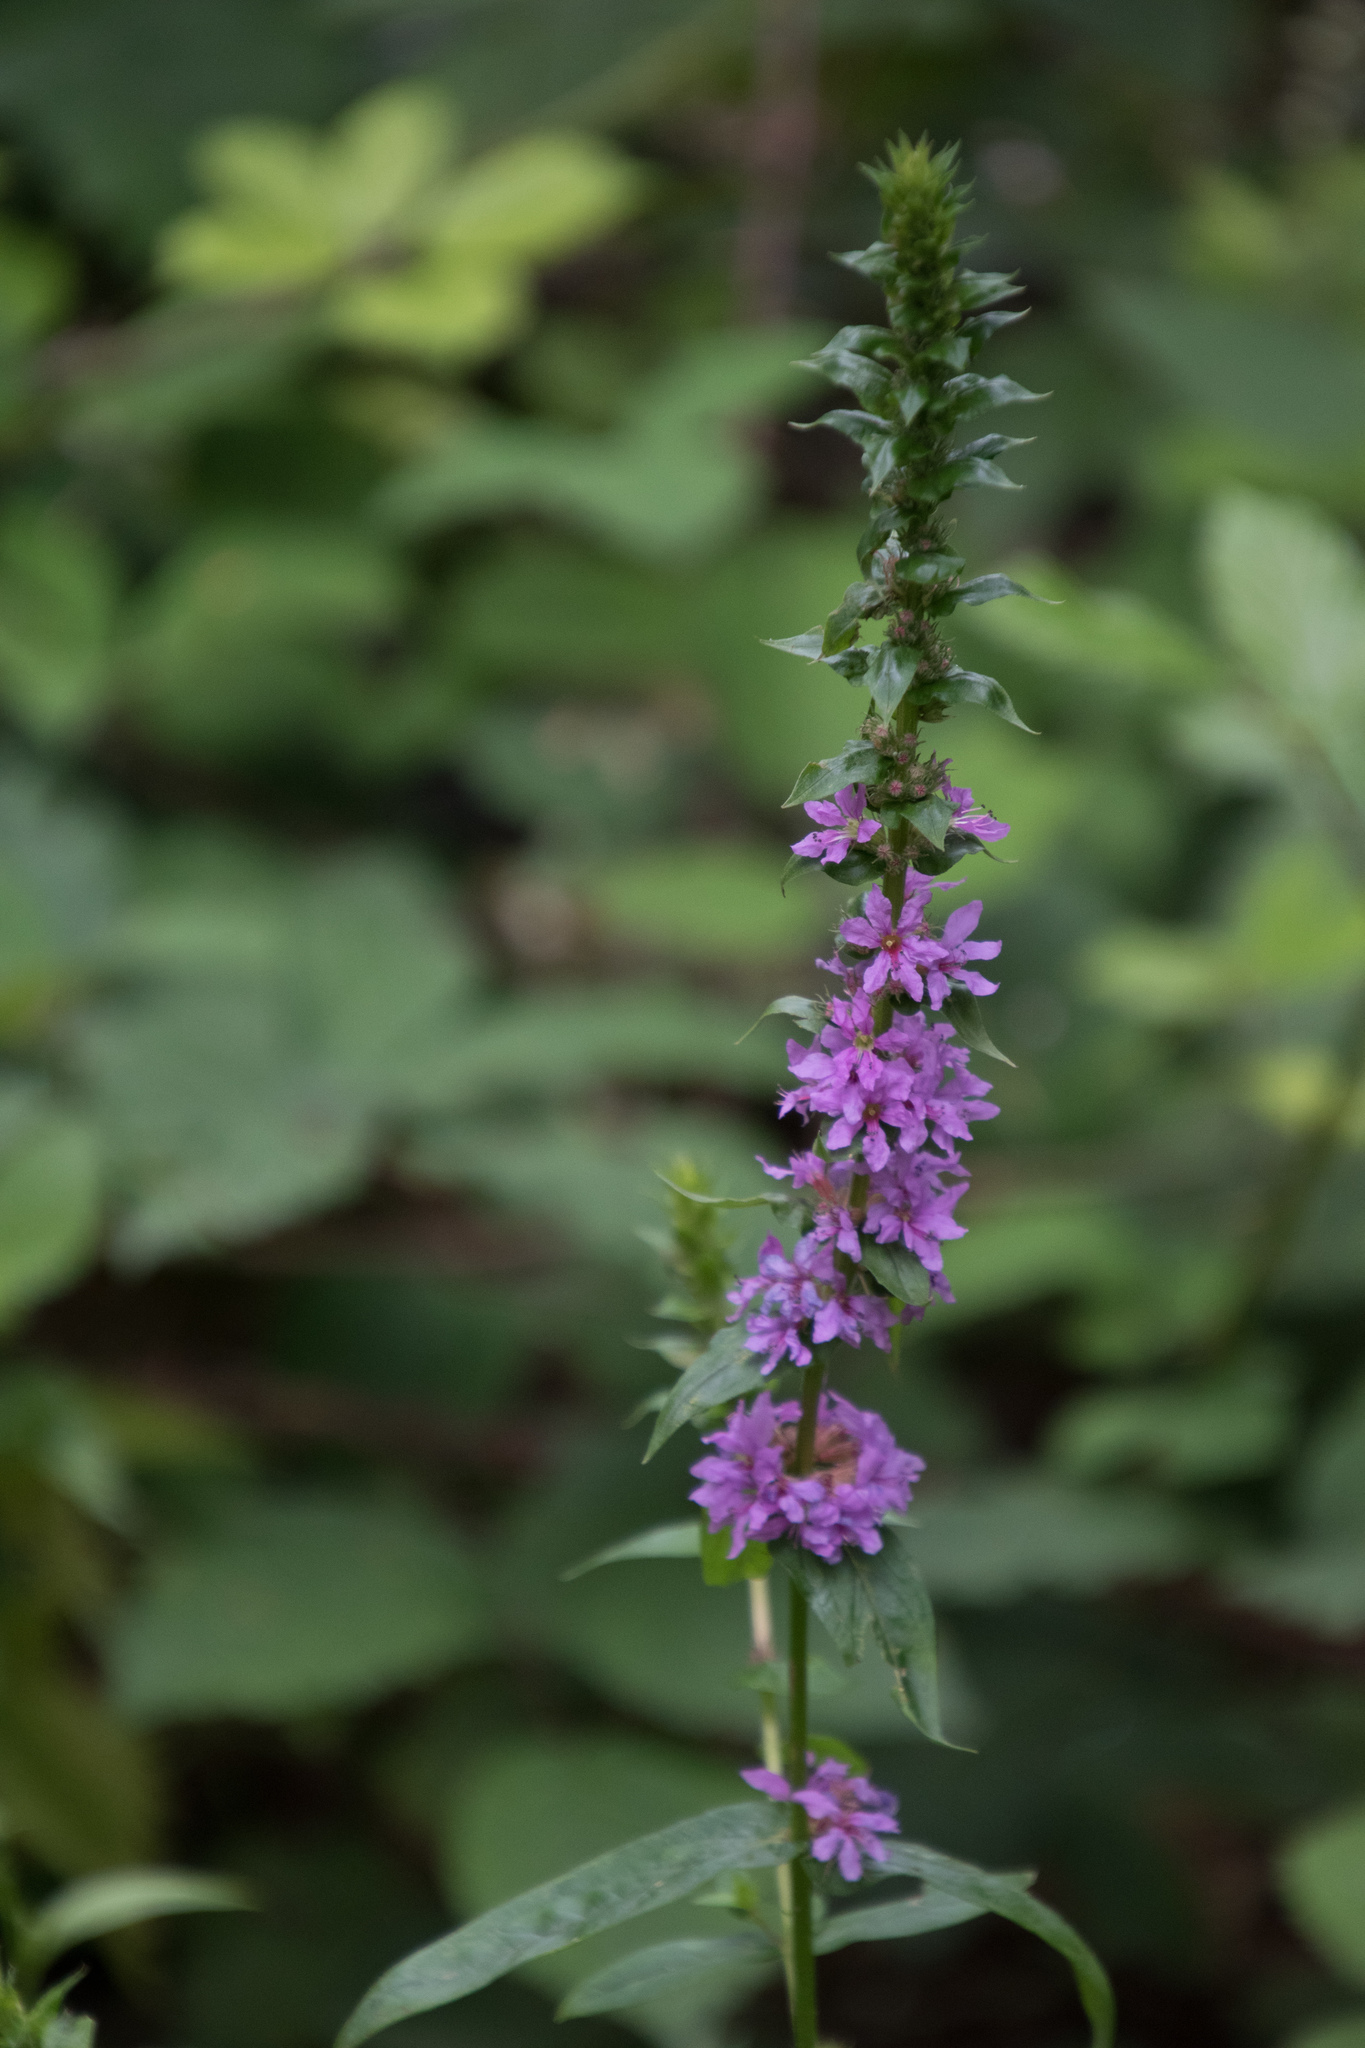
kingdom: Plantae
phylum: Tracheophyta
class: Magnoliopsida
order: Myrtales
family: Lythraceae
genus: Lythrum
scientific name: Lythrum salicaria
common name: Purple loosestrife
